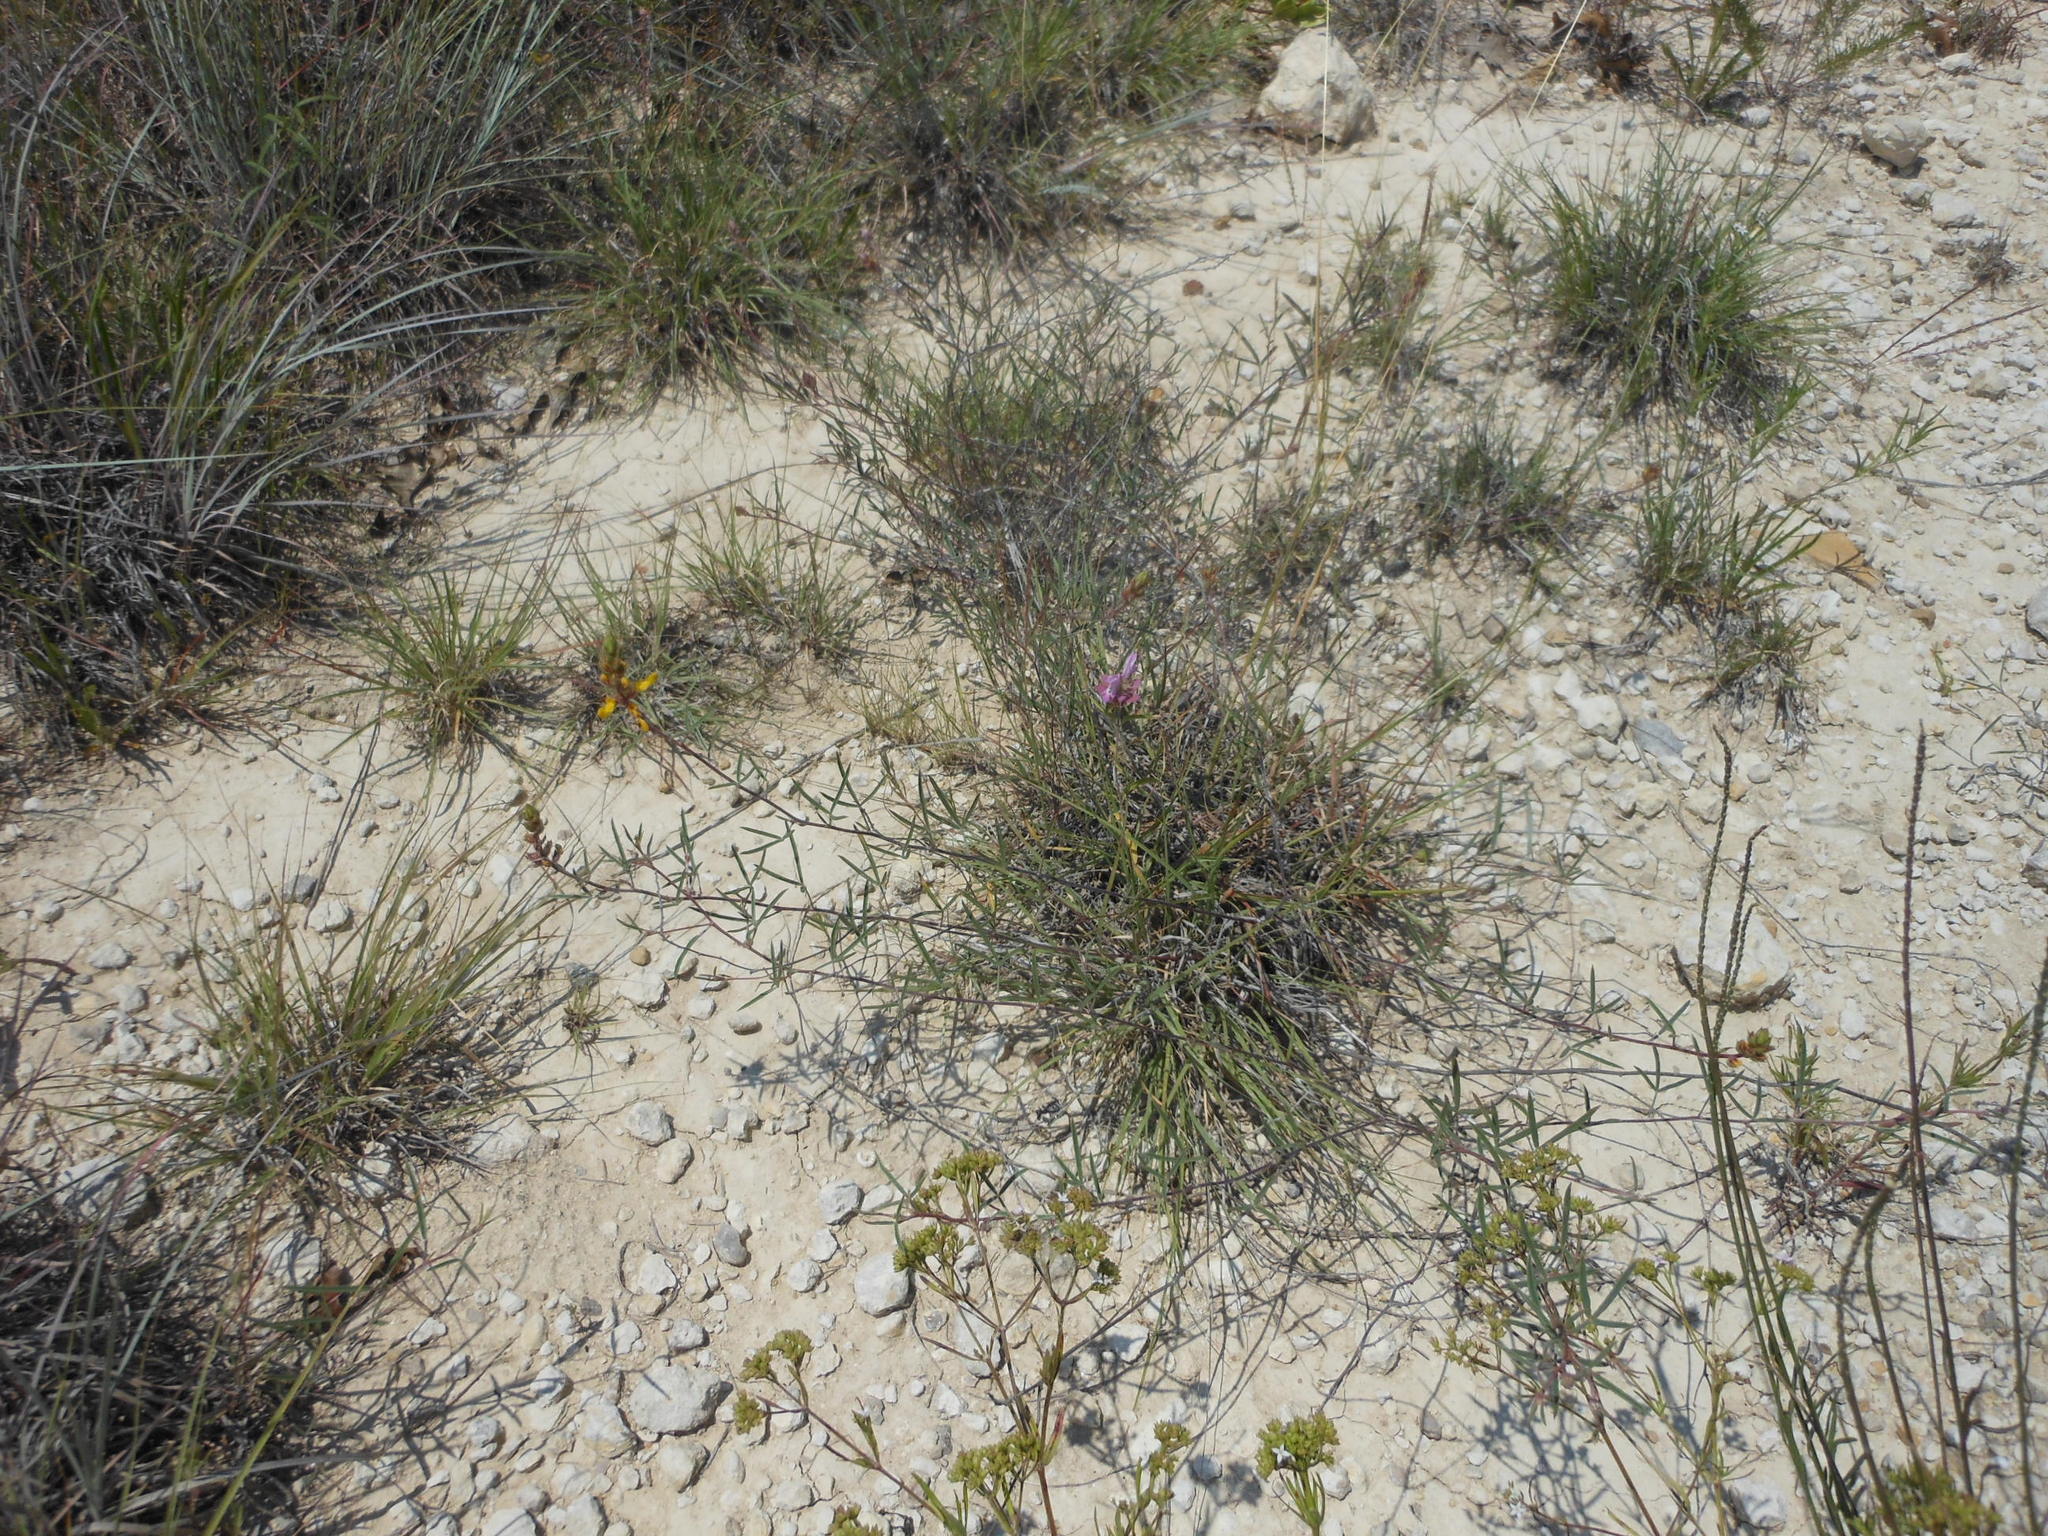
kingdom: Plantae
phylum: Tracheophyta
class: Magnoliopsida
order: Fabales
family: Fabaceae
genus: Dalea
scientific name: Dalea hallii
